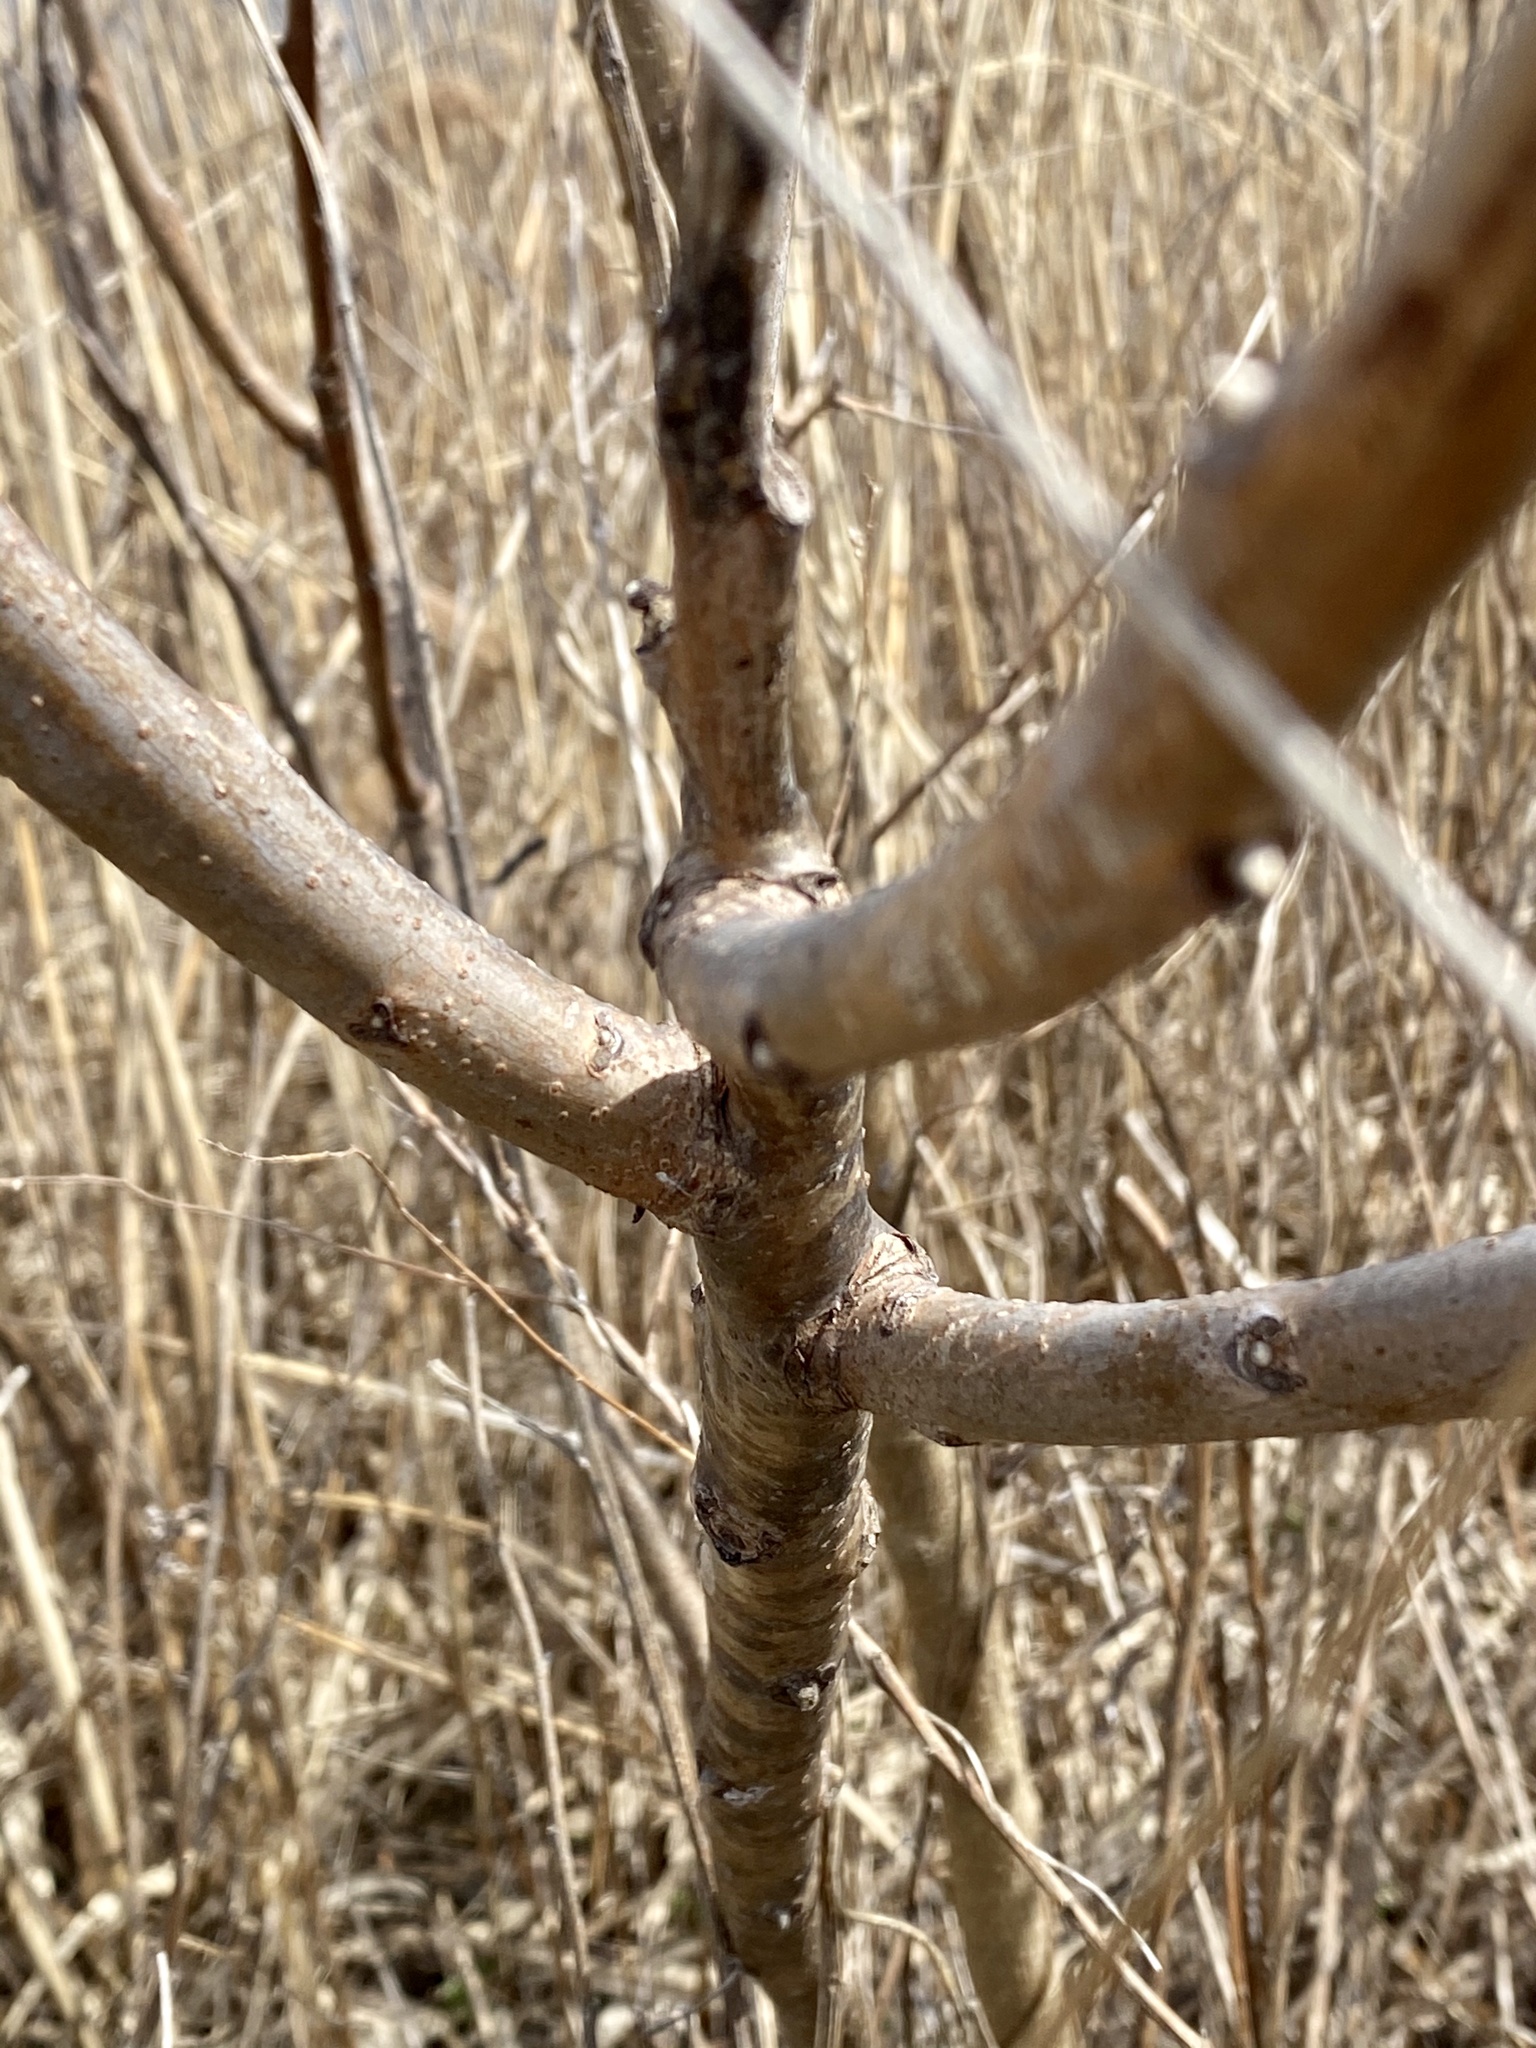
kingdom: Plantae
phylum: Tracheophyta
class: Magnoliopsida
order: Sapindales
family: Anacardiaceae
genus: Rhus
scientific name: Rhus glabra
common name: Scarlet sumac
